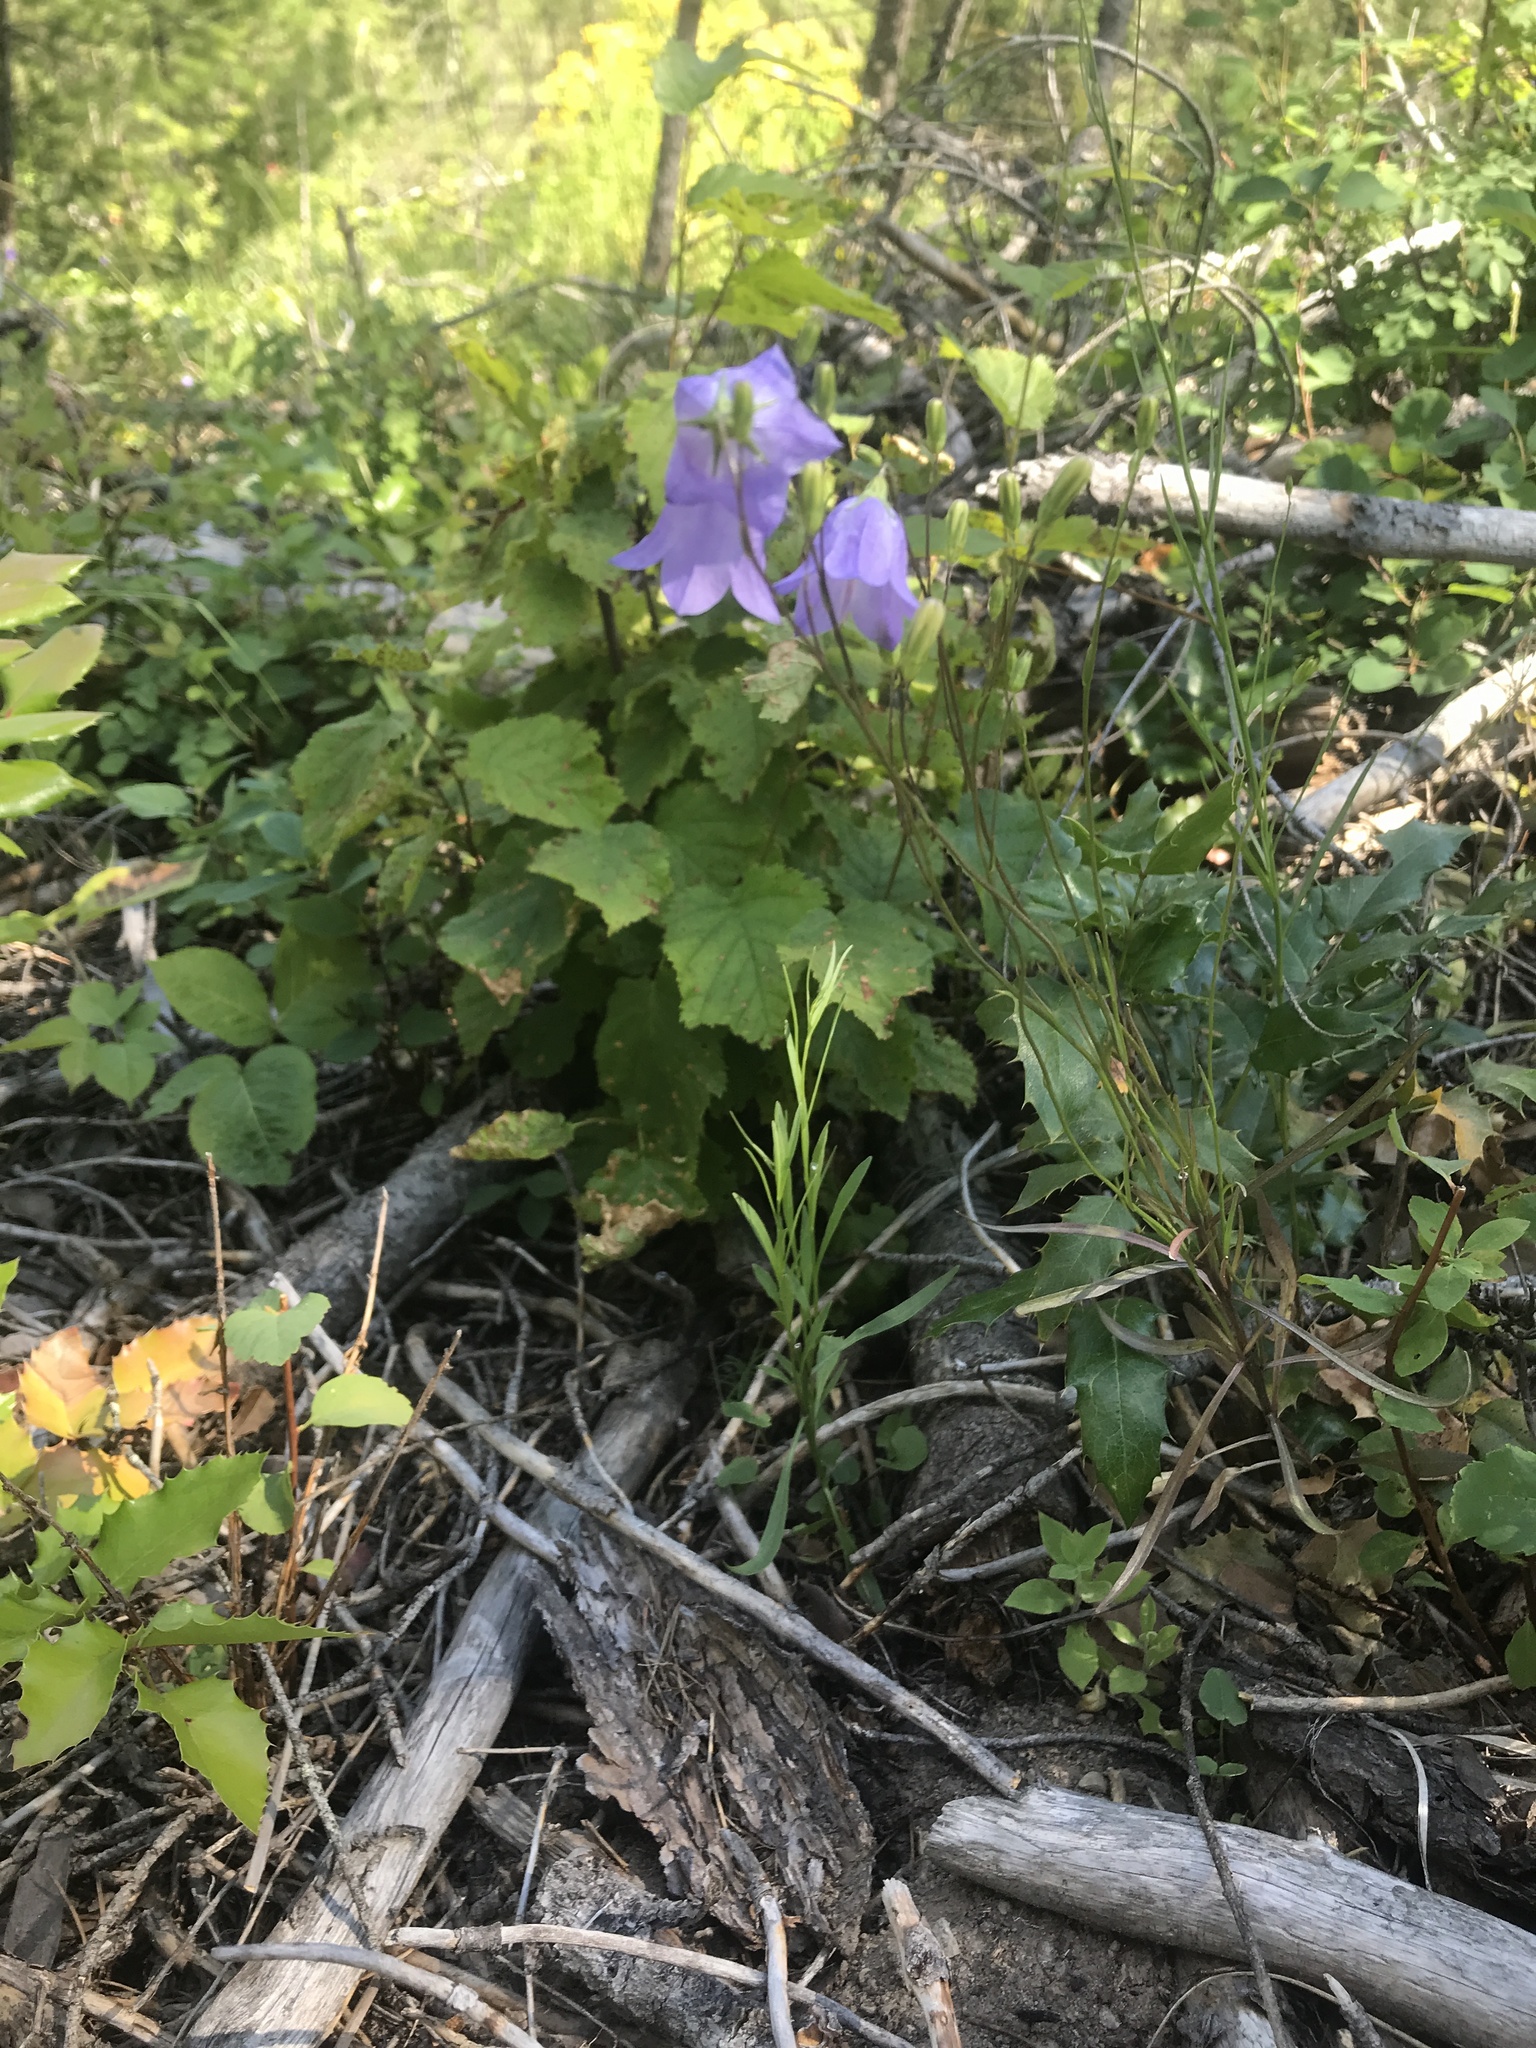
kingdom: Plantae
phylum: Tracheophyta
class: Magnoliopsida
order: Asterales
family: Campanulaceae
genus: Campanula
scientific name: Campanula persicifolia
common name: Peach-leaved bellflower
